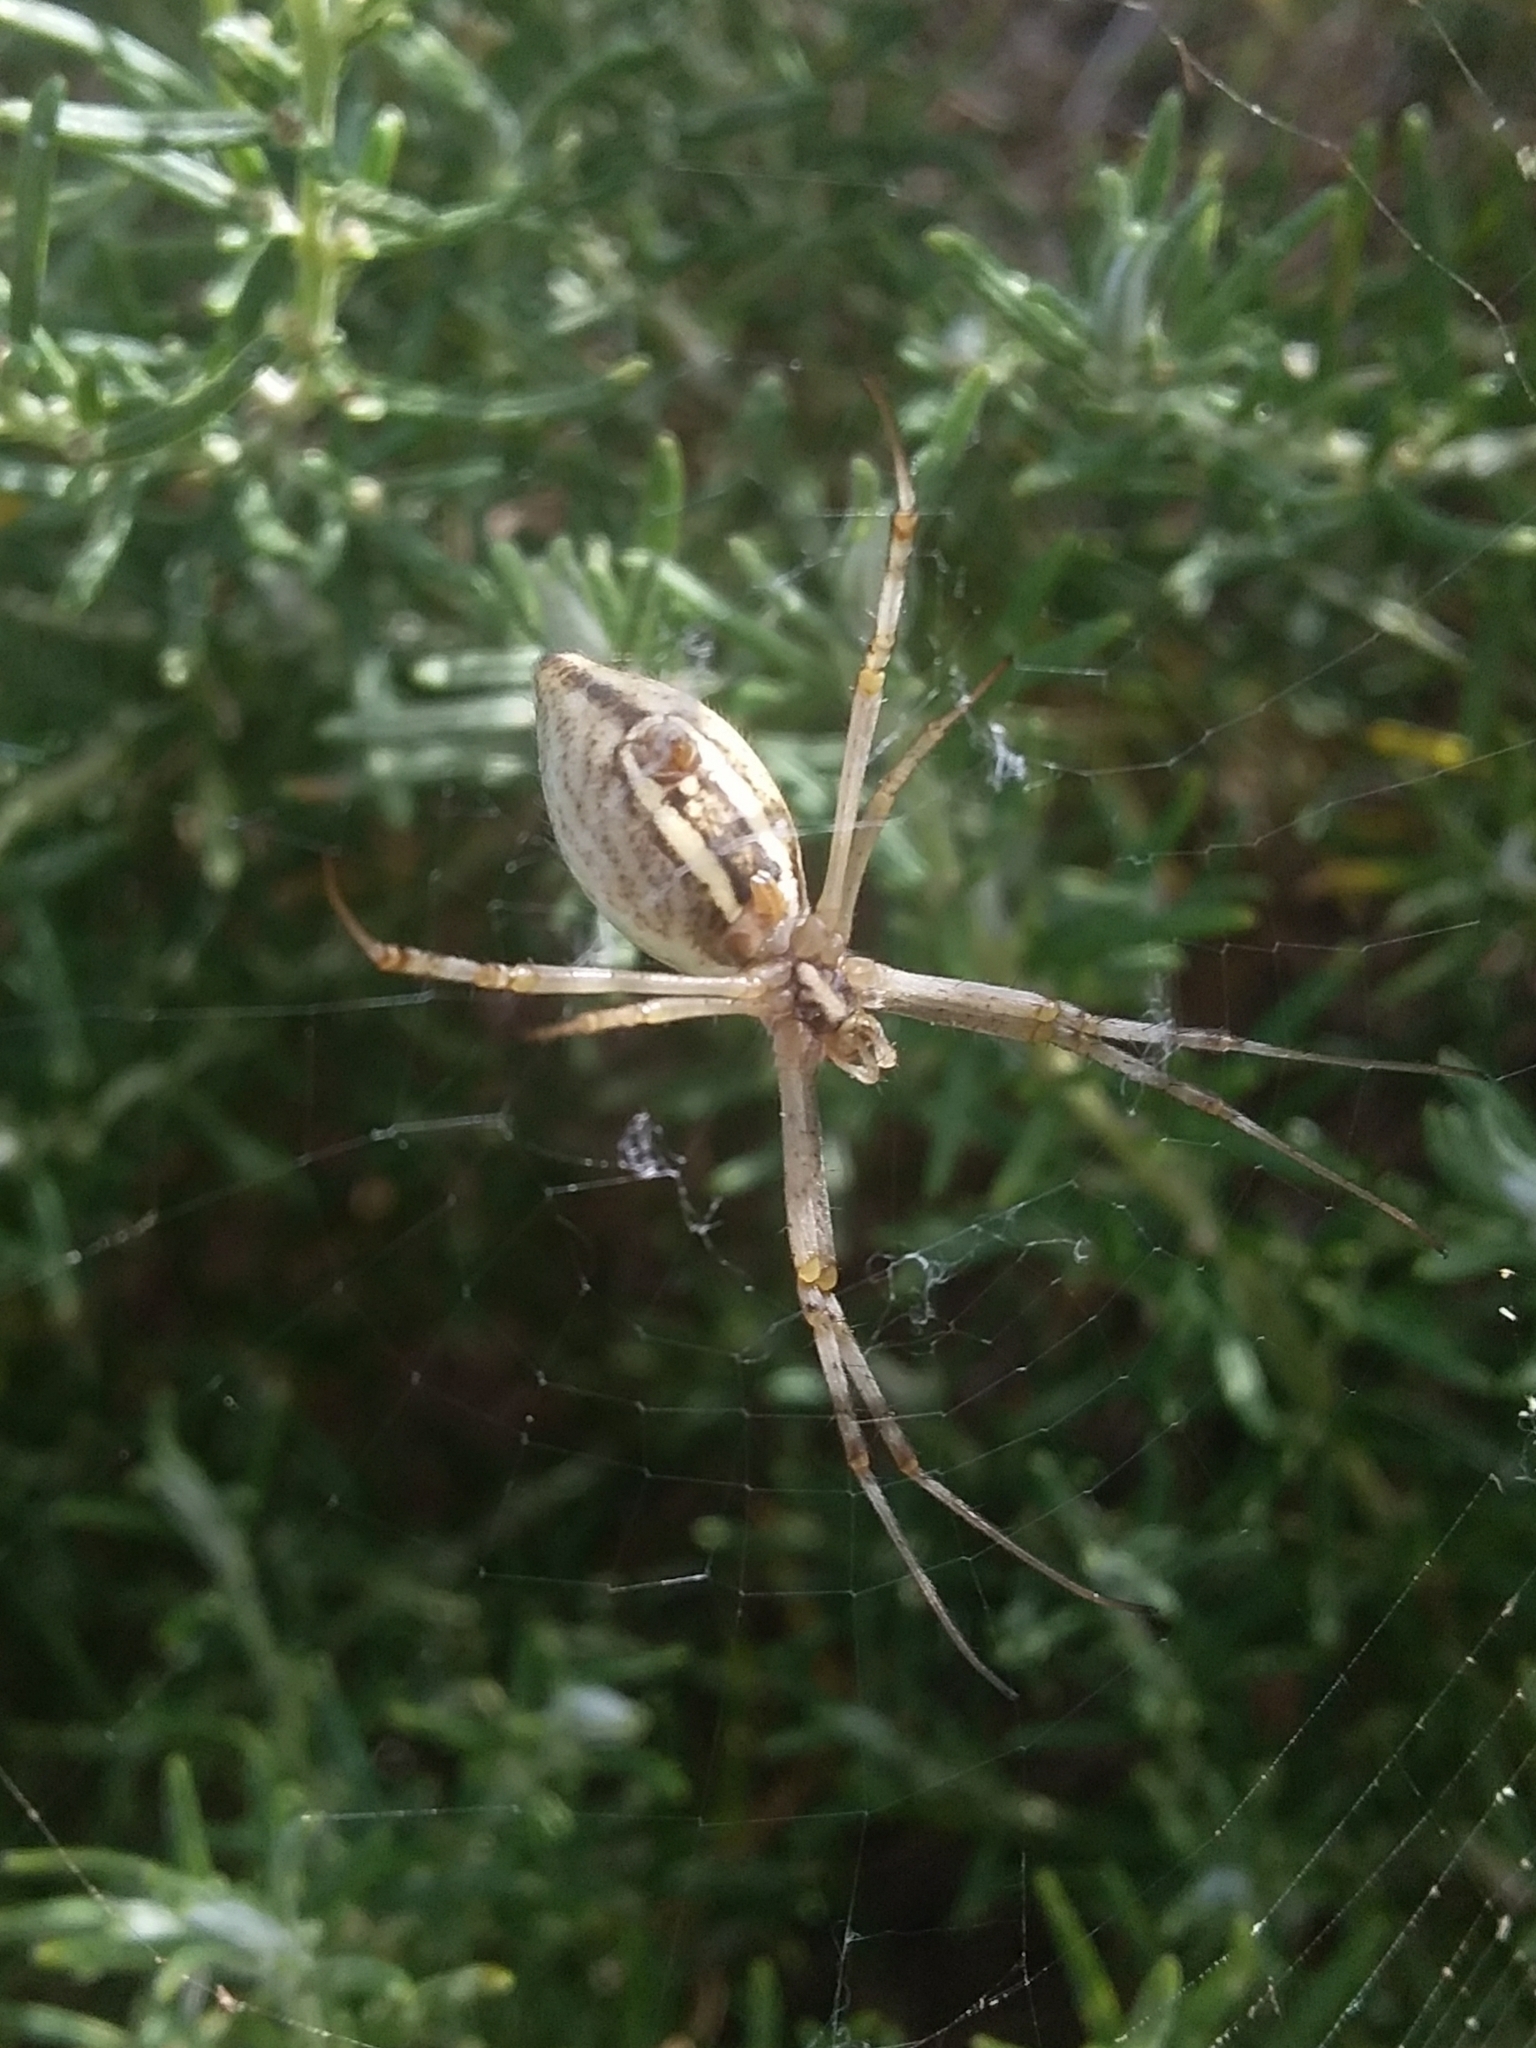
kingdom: Animalia
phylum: Arthropoda
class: Arachnida
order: Araneae
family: Araneidae
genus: Argiope
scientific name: Argiope protensa
